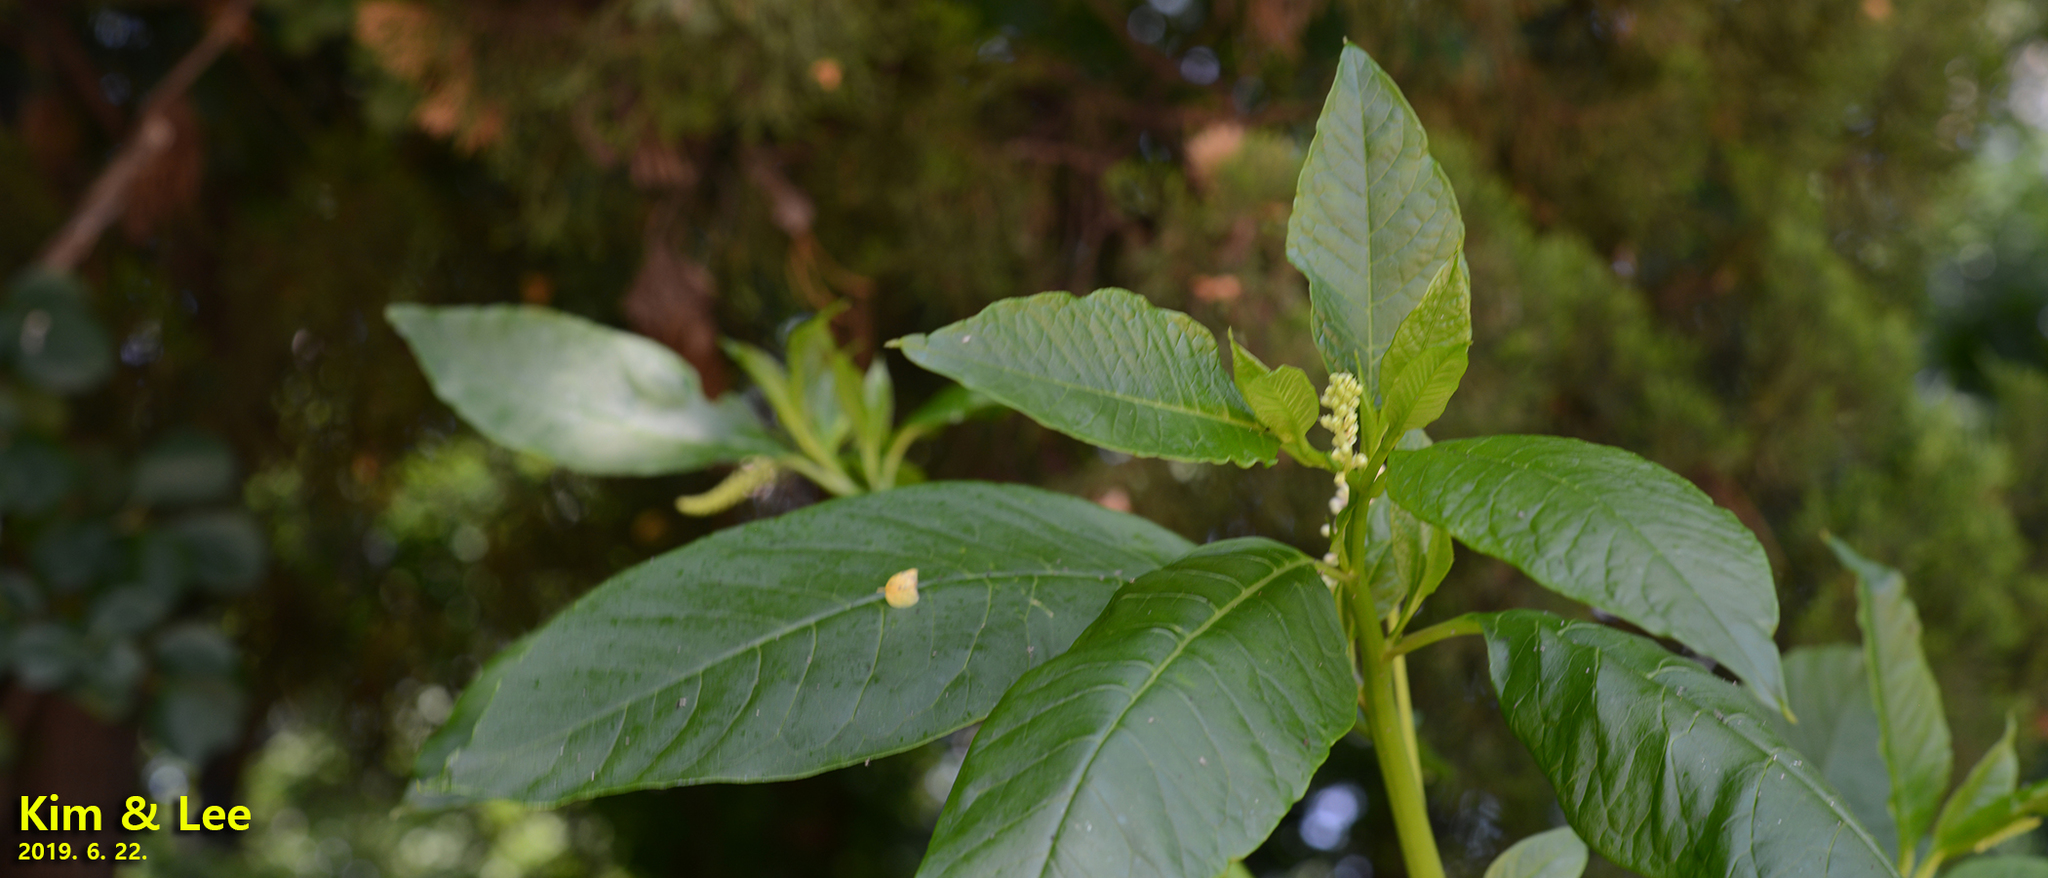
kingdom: Plantae
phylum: Tracheophyta
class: Magnoliopsida
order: Caryophyllales
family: Phytolaccaceae
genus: Phytolacca
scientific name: Phytolacca americana
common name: American pokeweed
